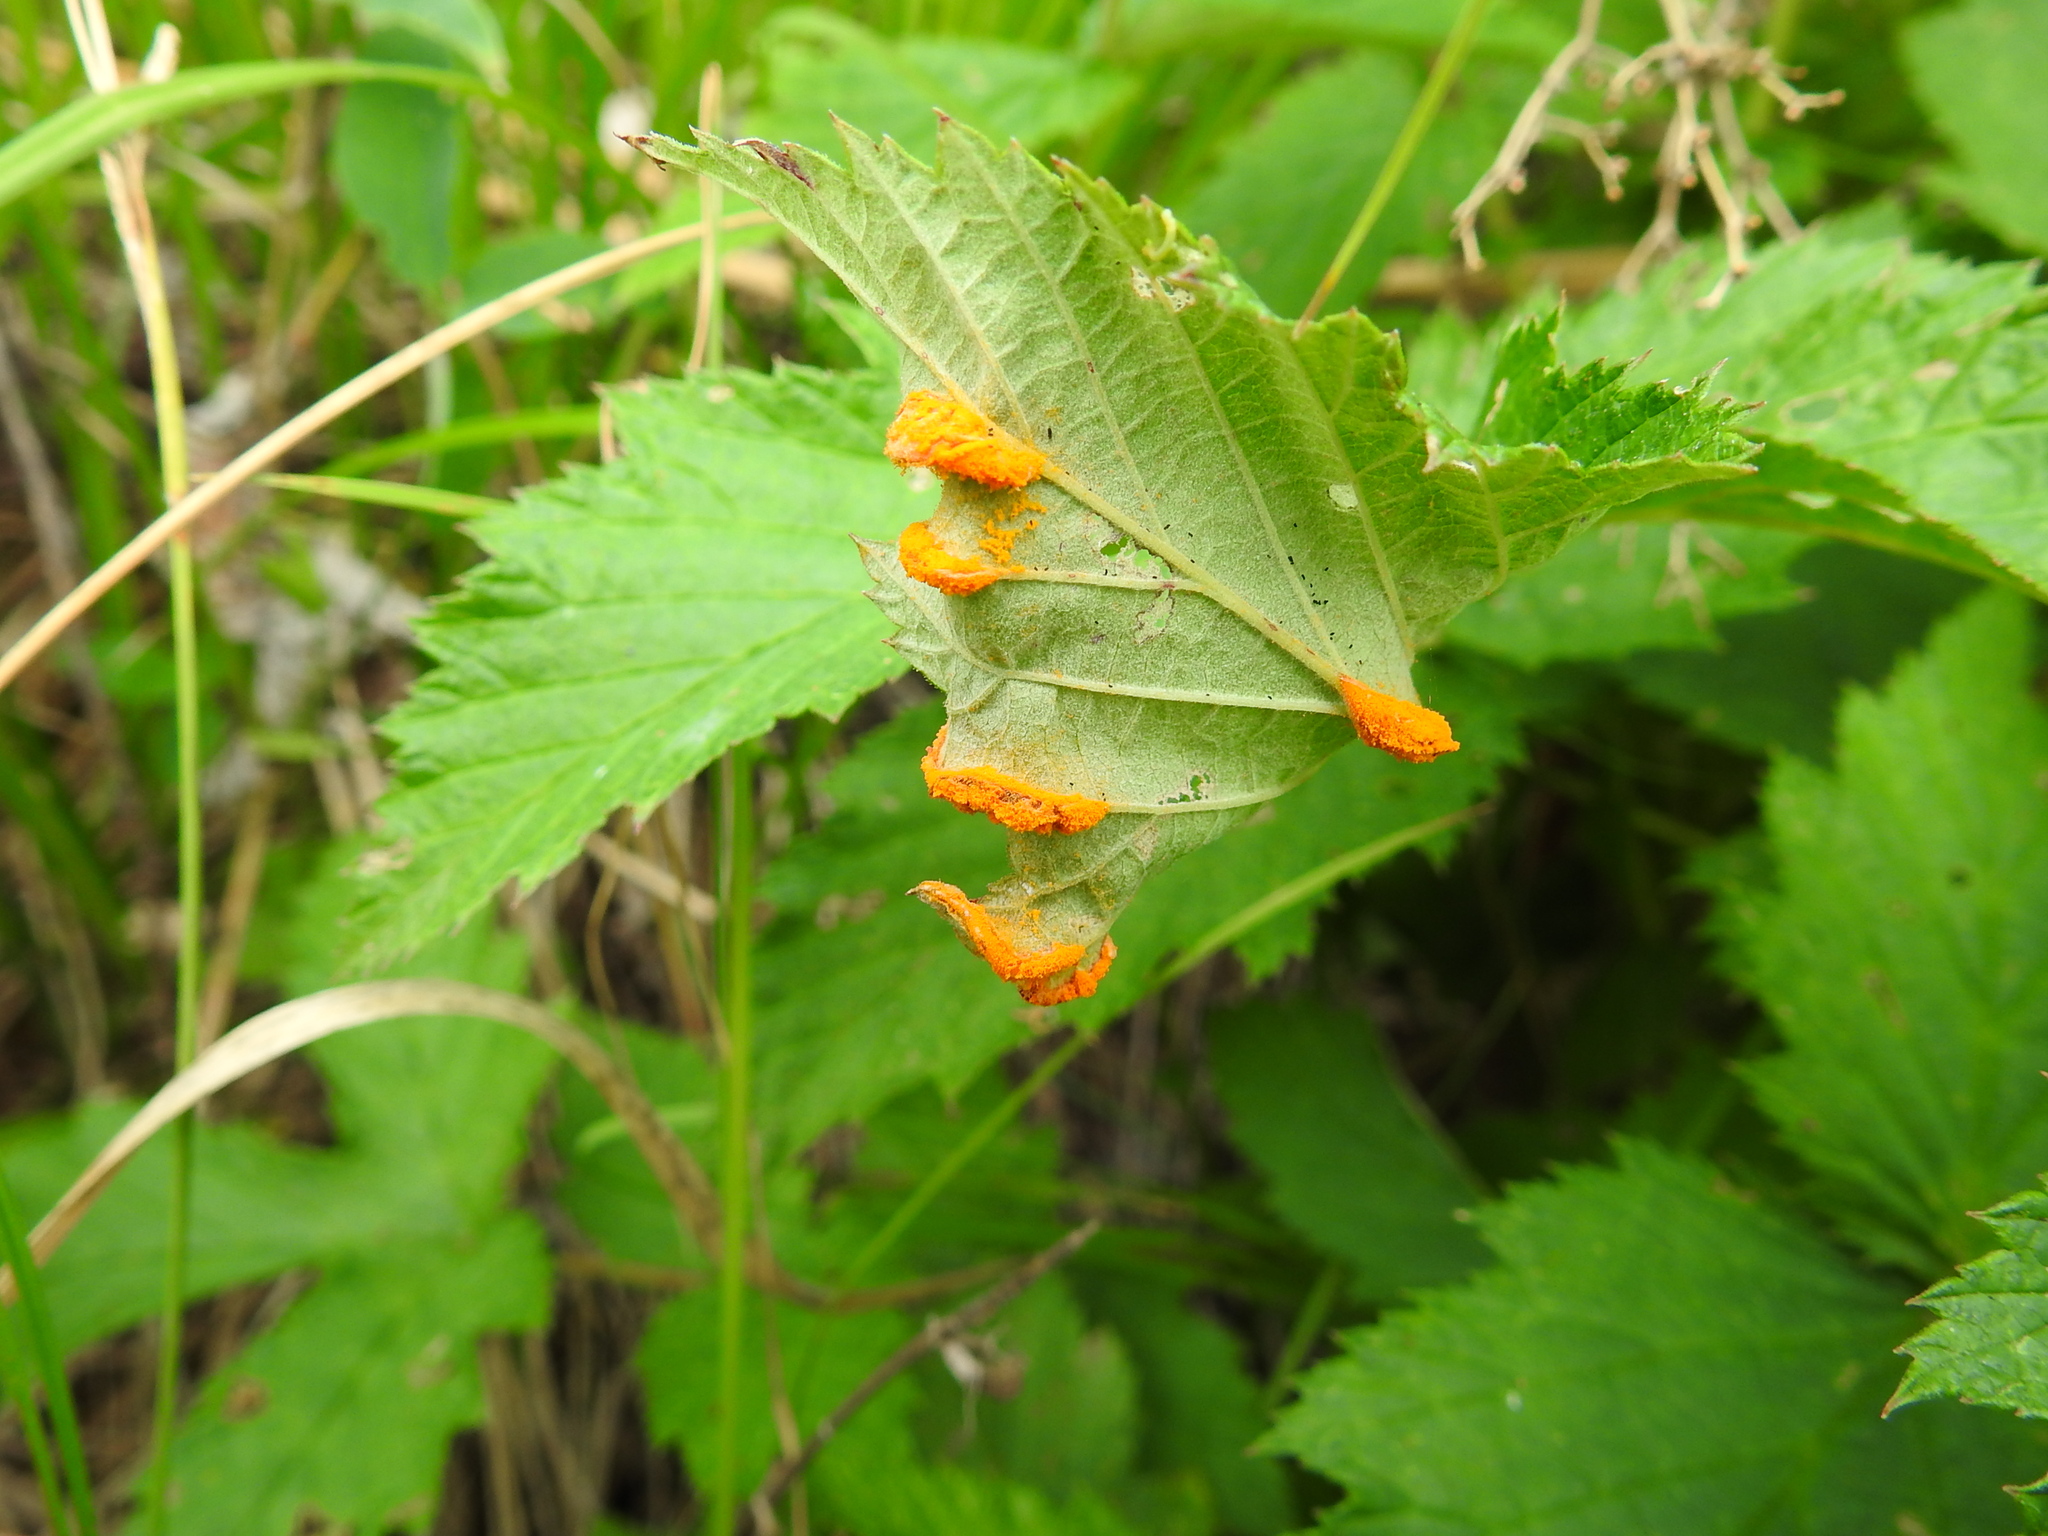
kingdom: Fungi
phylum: Basidiomycota
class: Pucciniomycetes
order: Pucciniales
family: Pucciniaceae
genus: Puccinia
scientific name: Puccinia urticata
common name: Nettle clustercup rust fungus
